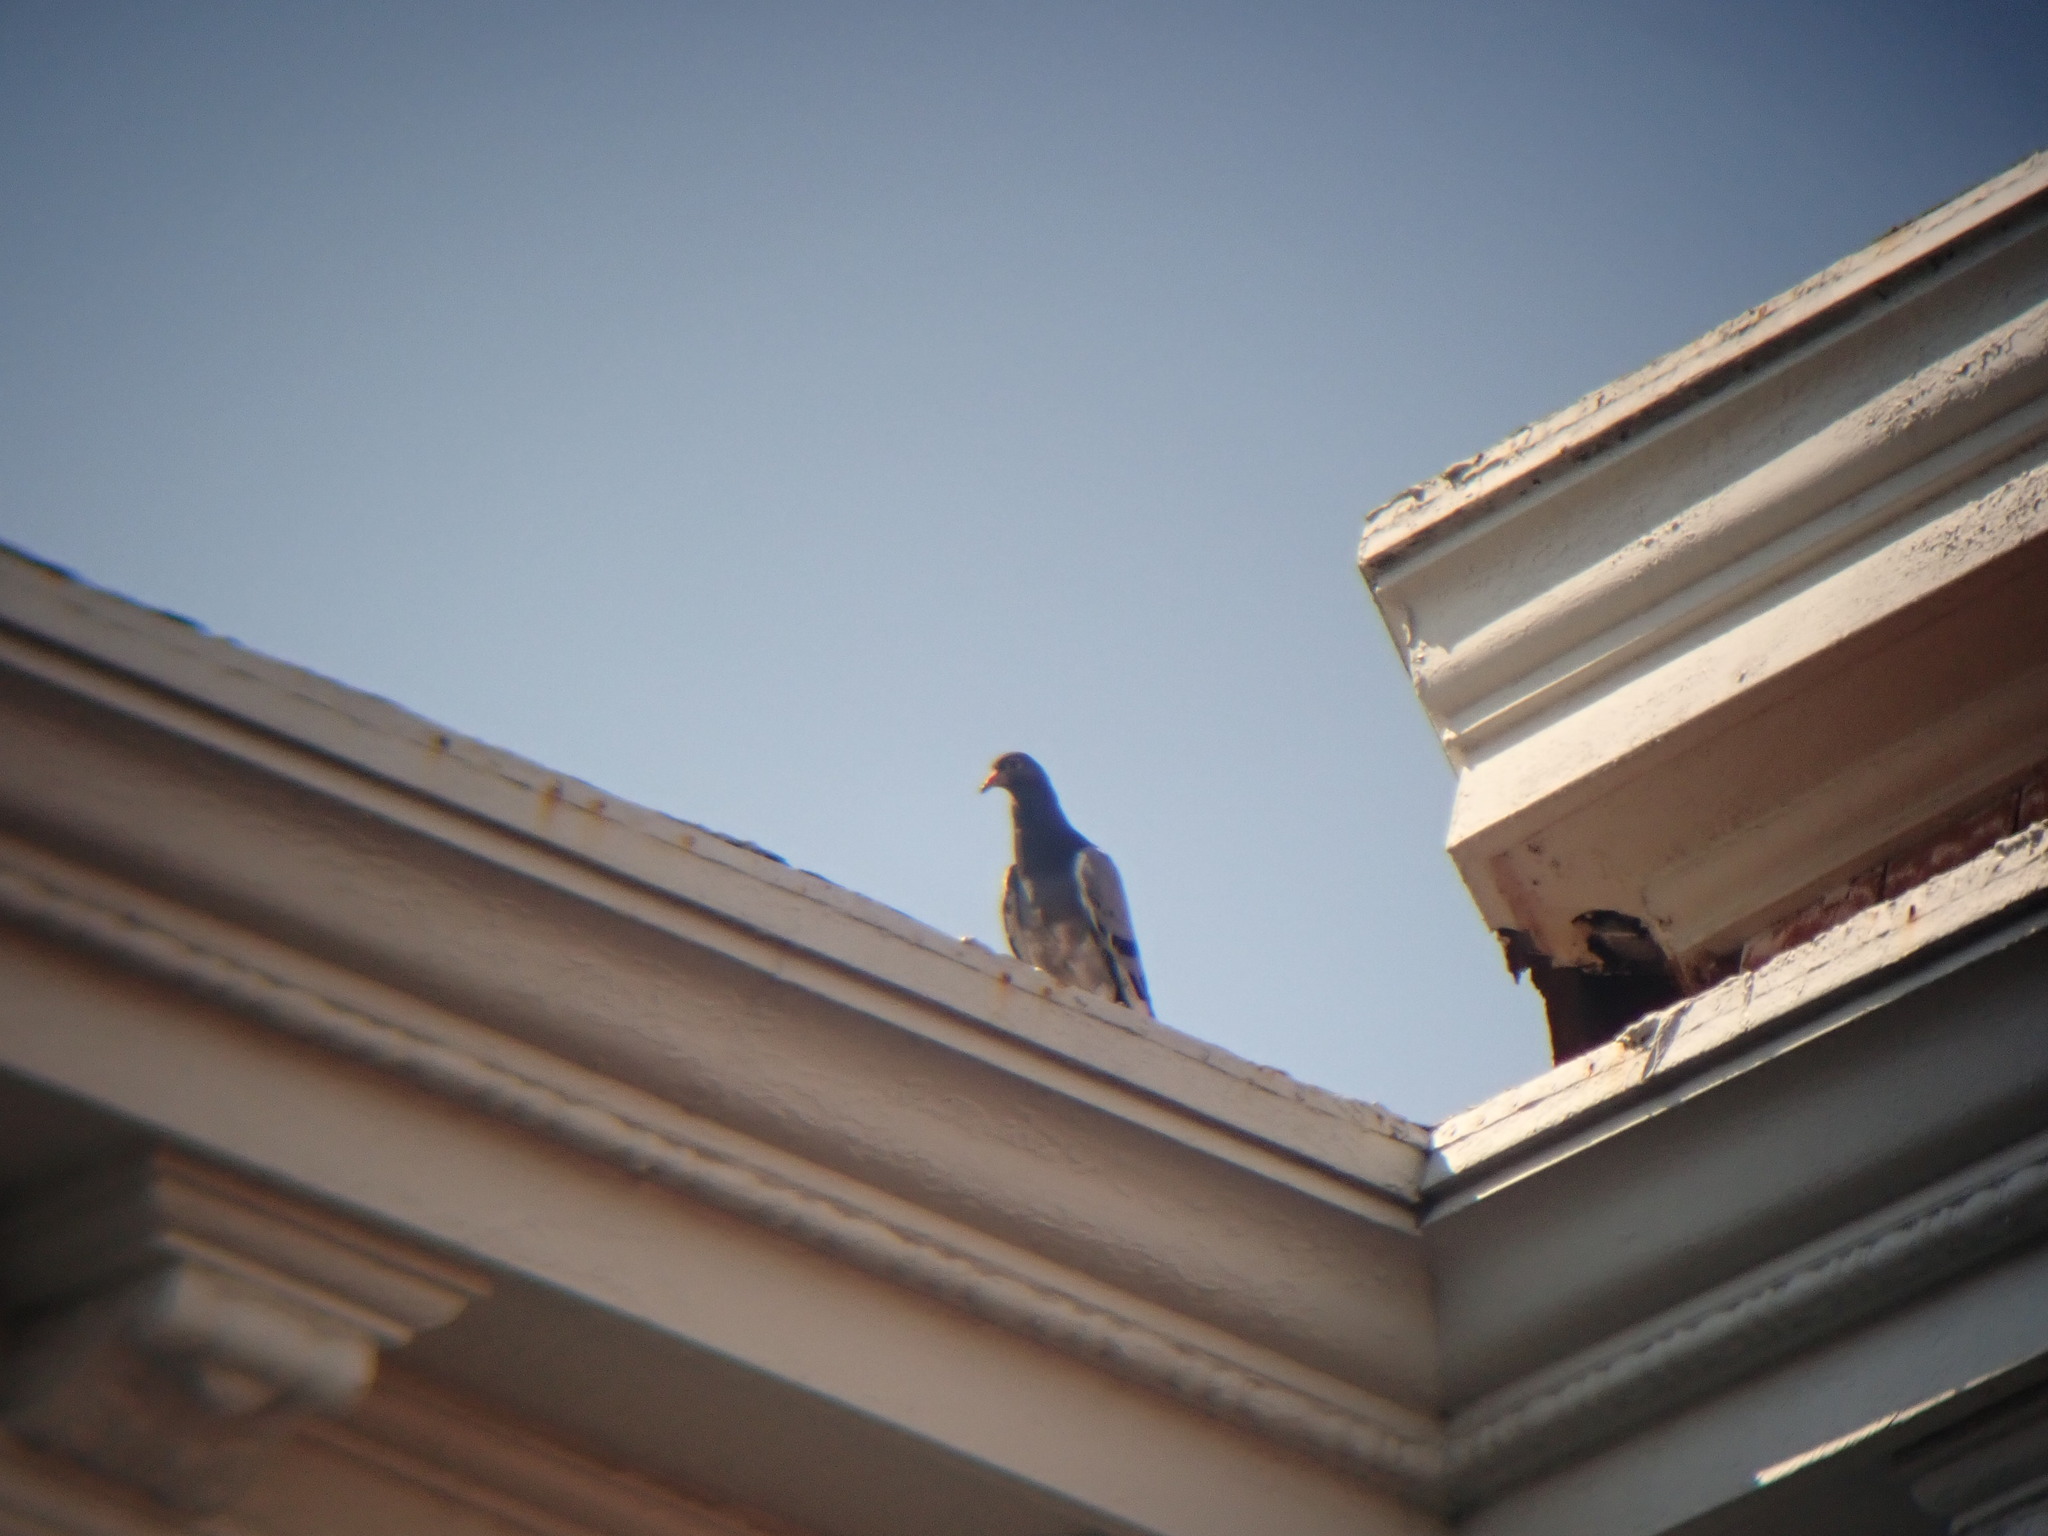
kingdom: Animalia
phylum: Chordata
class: Aves
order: Columbiformes
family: Columbidae
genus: Columba
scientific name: Columba livia
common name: Rock pigeon
